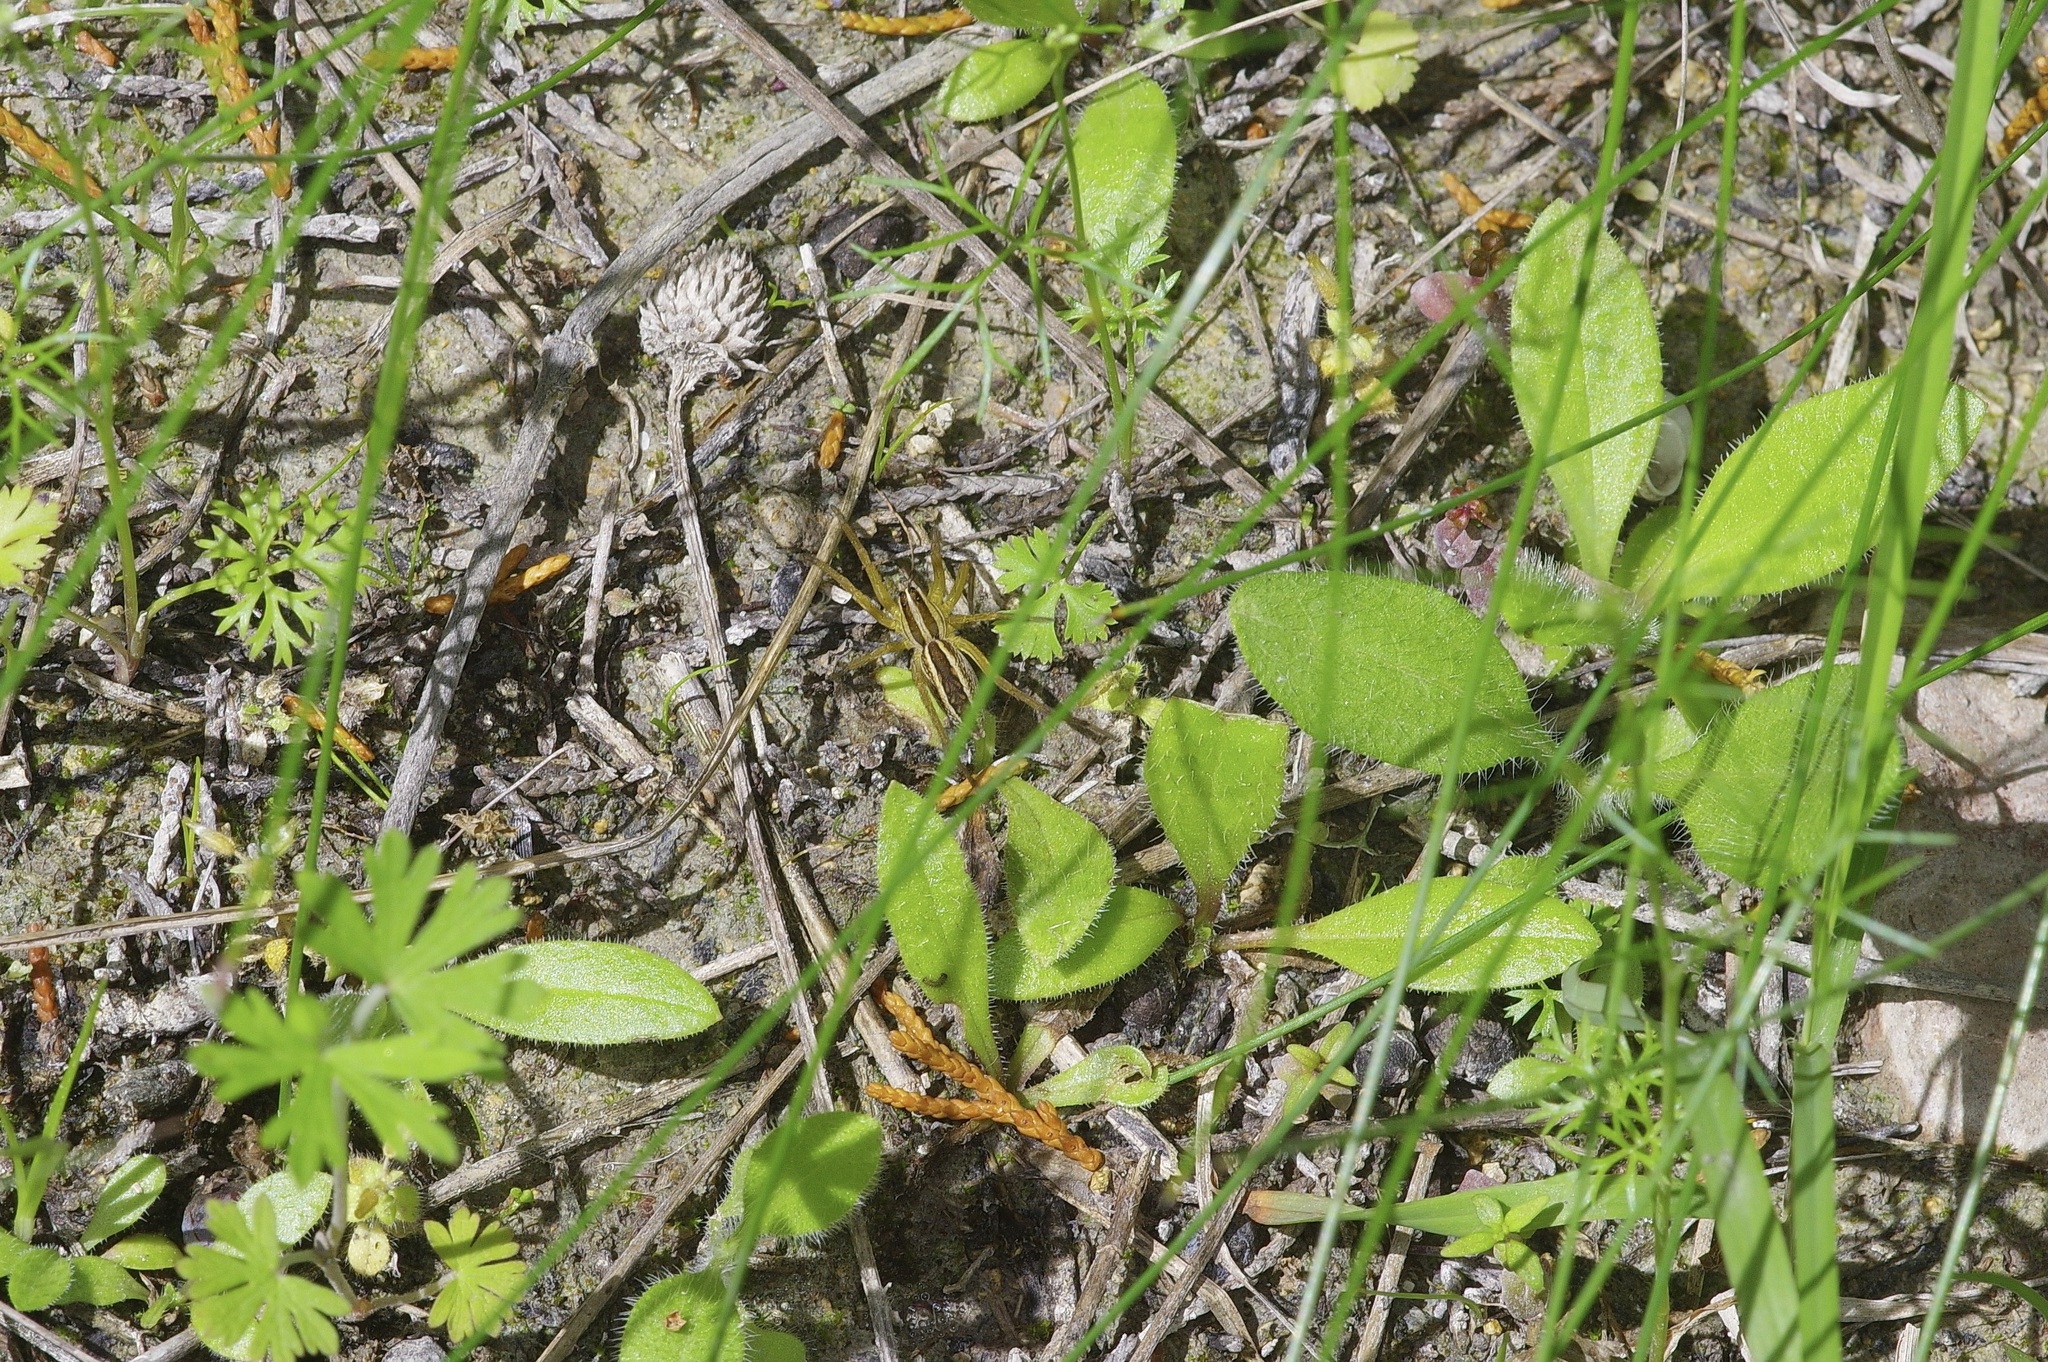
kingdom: Animalia
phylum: Arthropoda
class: Arachnida
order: Araneae
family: Lycosidae
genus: Rabidosa
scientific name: Rabidosa rabida
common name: Rabid wolf spider
